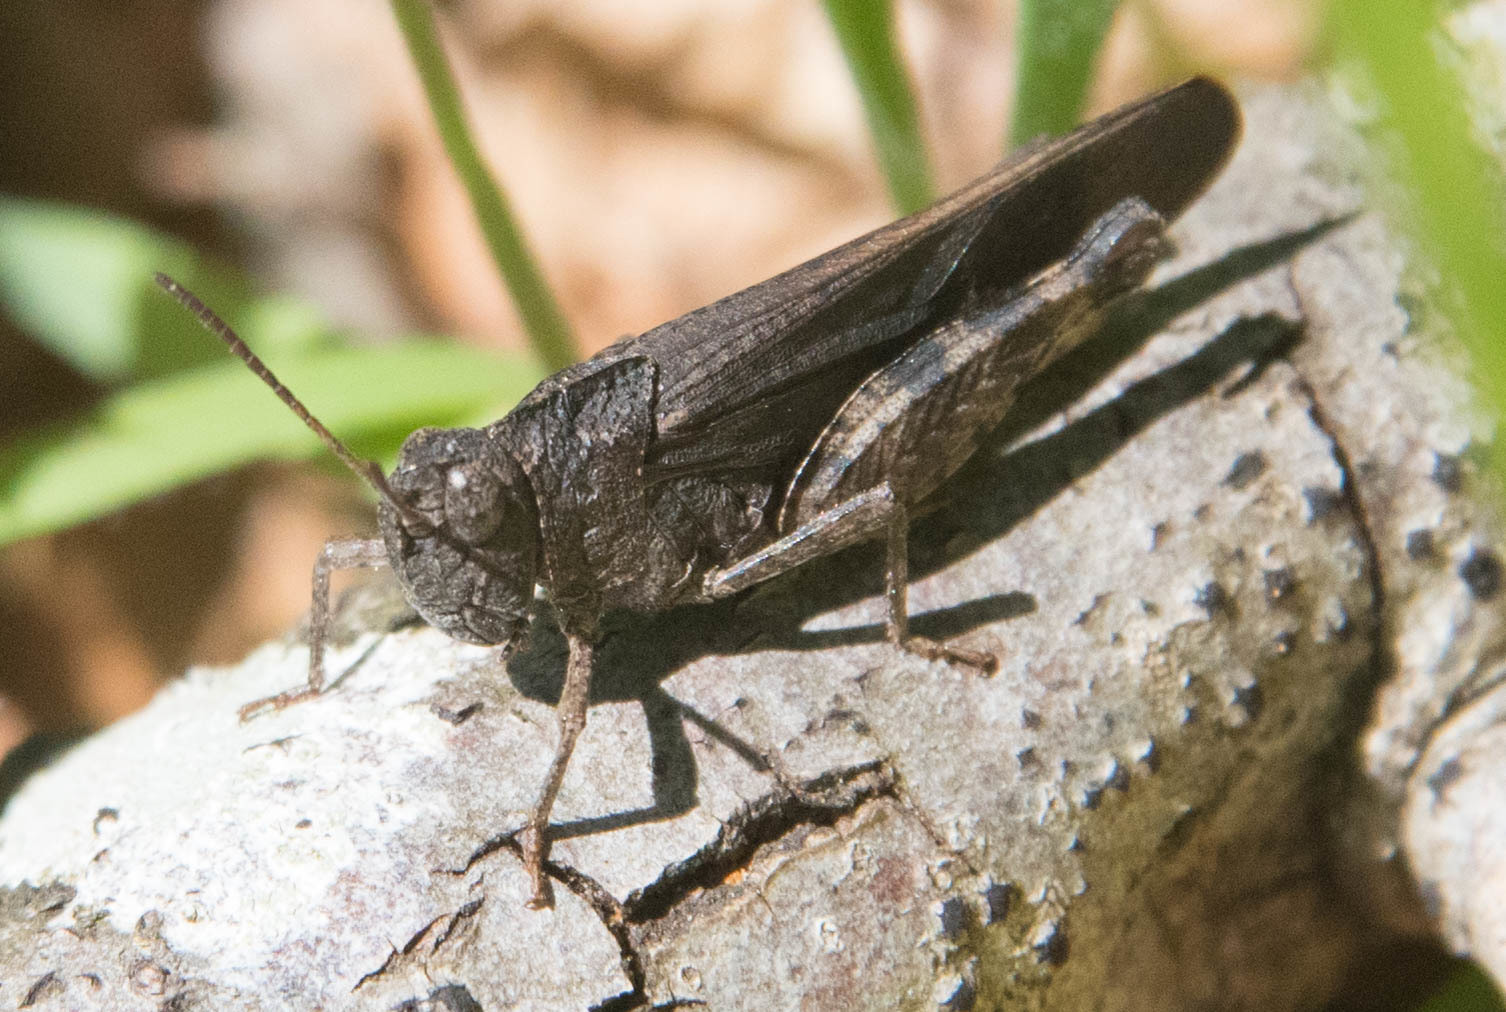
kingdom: Animalia
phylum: Arthropoda
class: Insecta
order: Orthoptera
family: Acrididae
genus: Arphia
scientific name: Arphia behrensi
